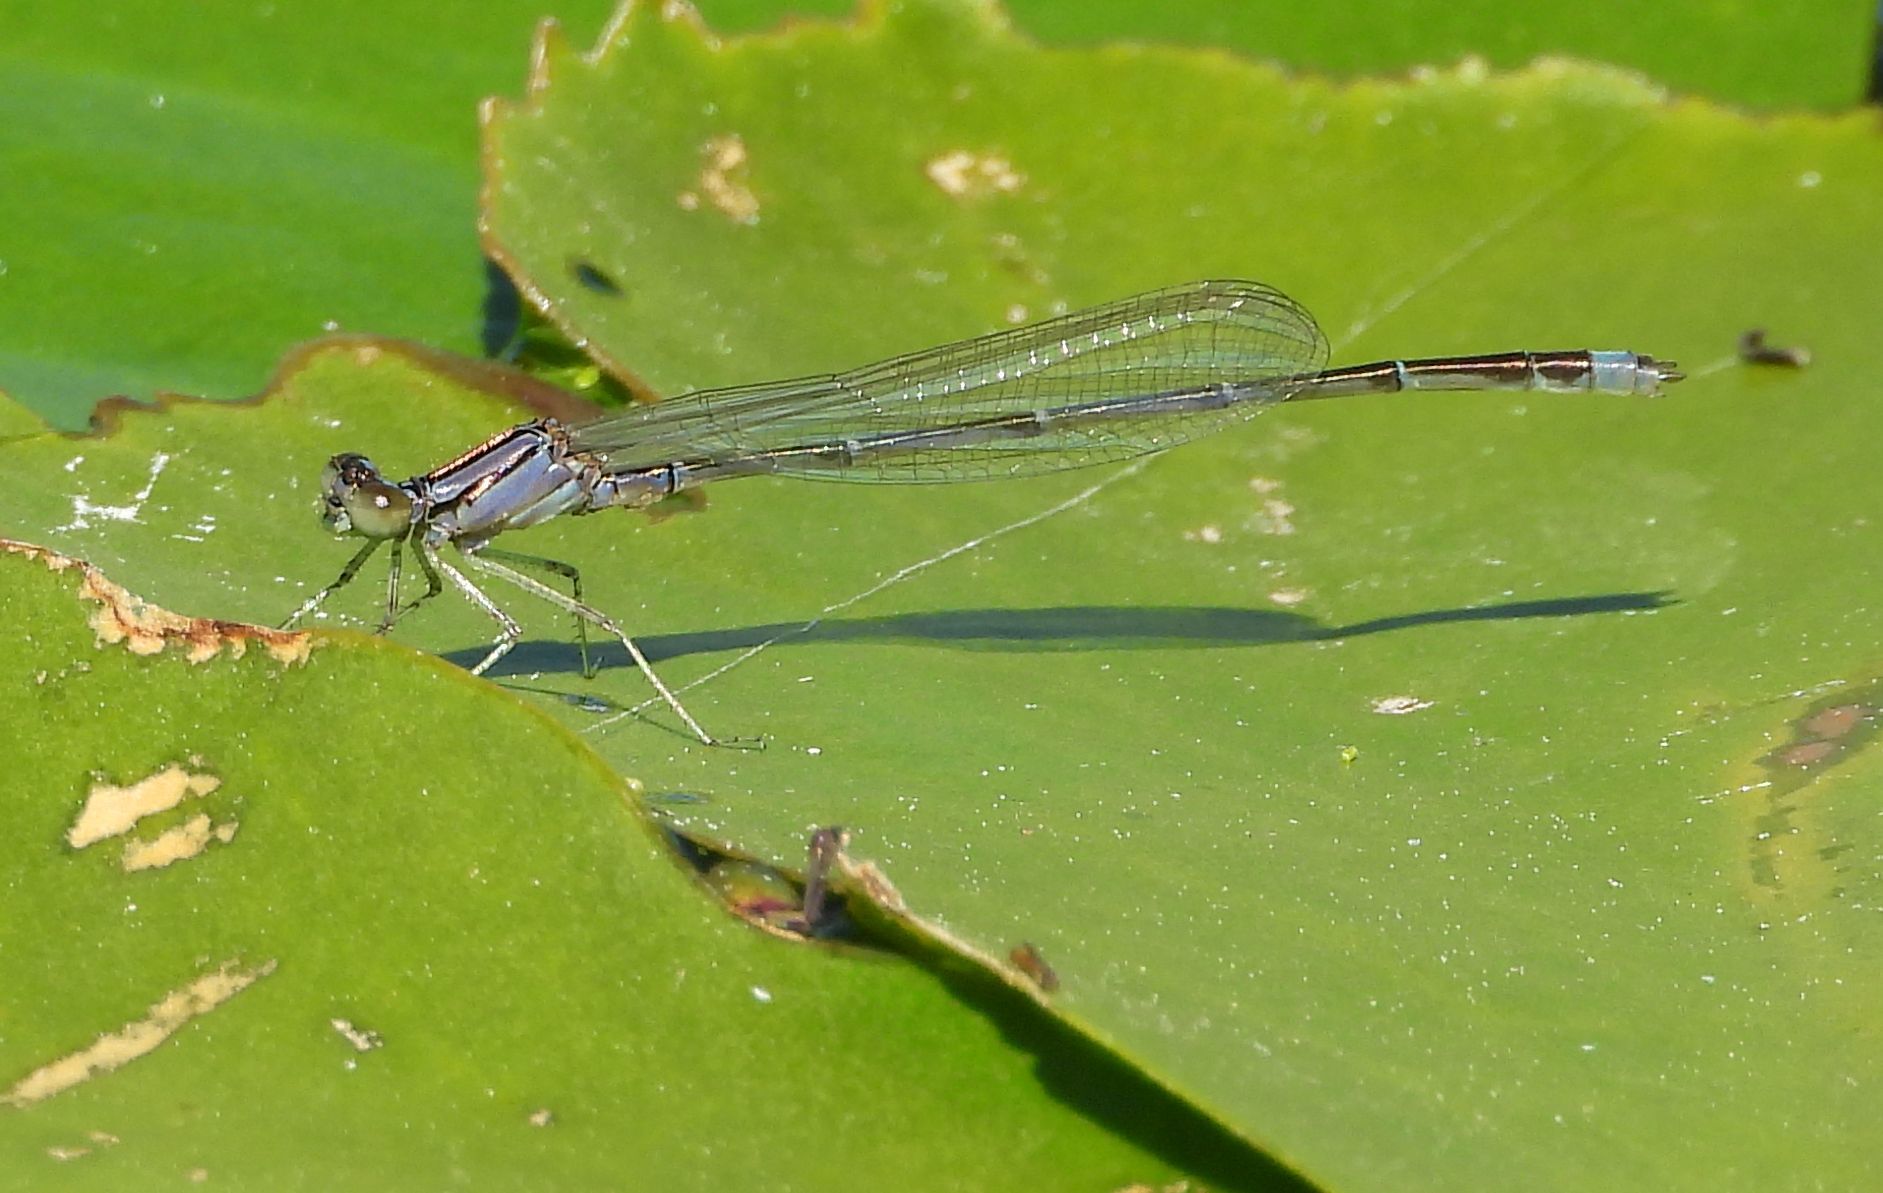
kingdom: Animalia
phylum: Arthropoda
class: Insecta
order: Odonata
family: Coenagrionidae
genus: Enallagma
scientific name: Enallagma signatum
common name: Orange bluet
